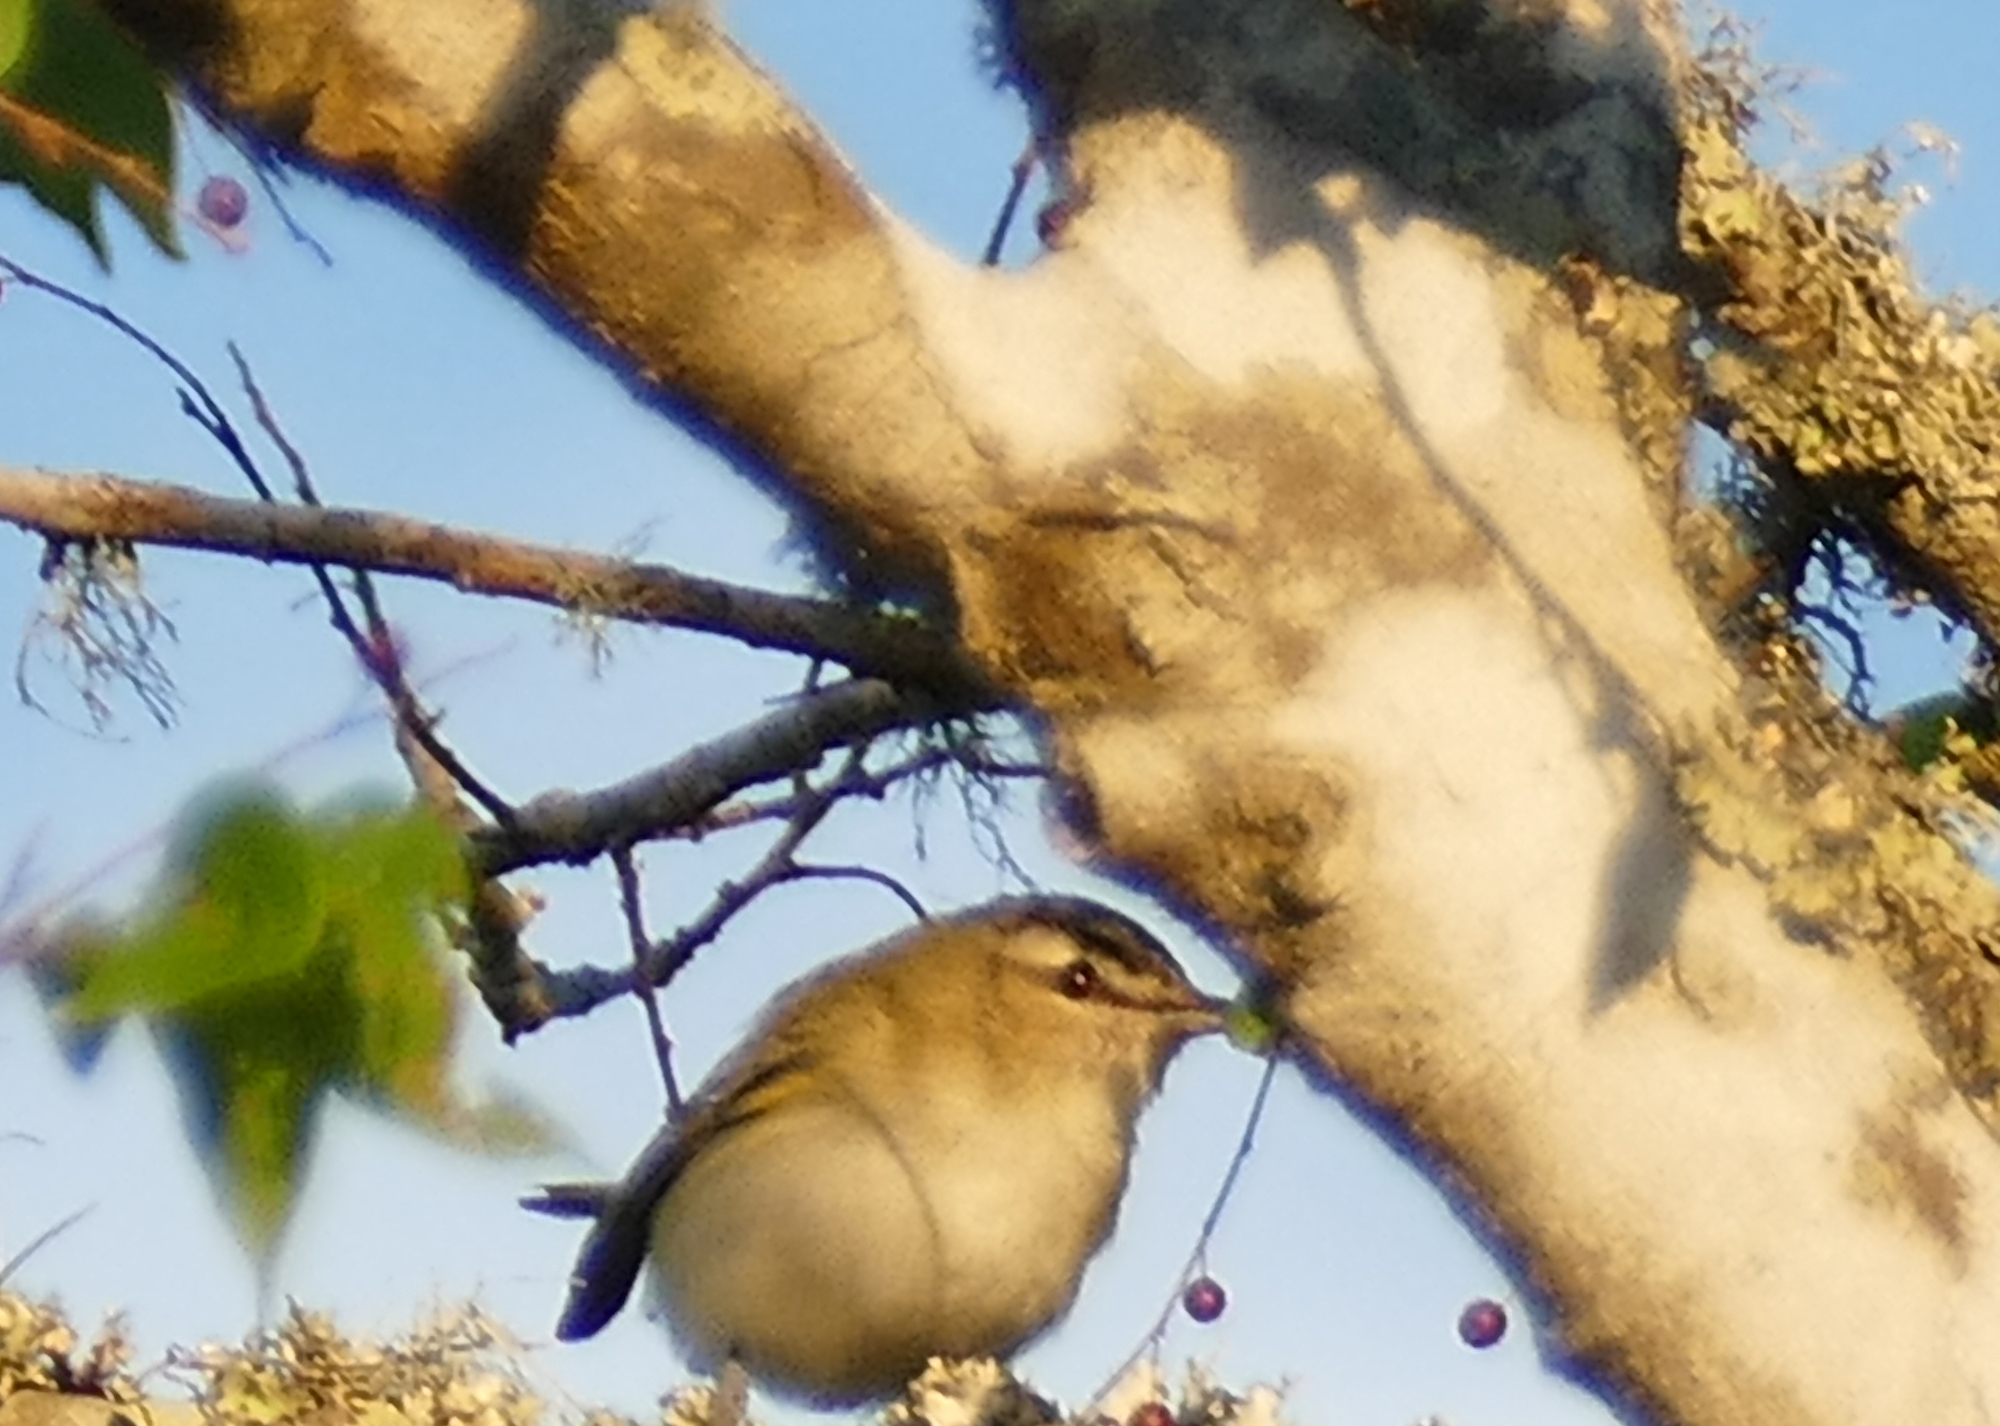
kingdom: Animalia
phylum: Chordata
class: Aves
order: Passeriformes
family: Vireonidae
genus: Vireo
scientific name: Vireo olivaceus
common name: Red-eyed vireo
